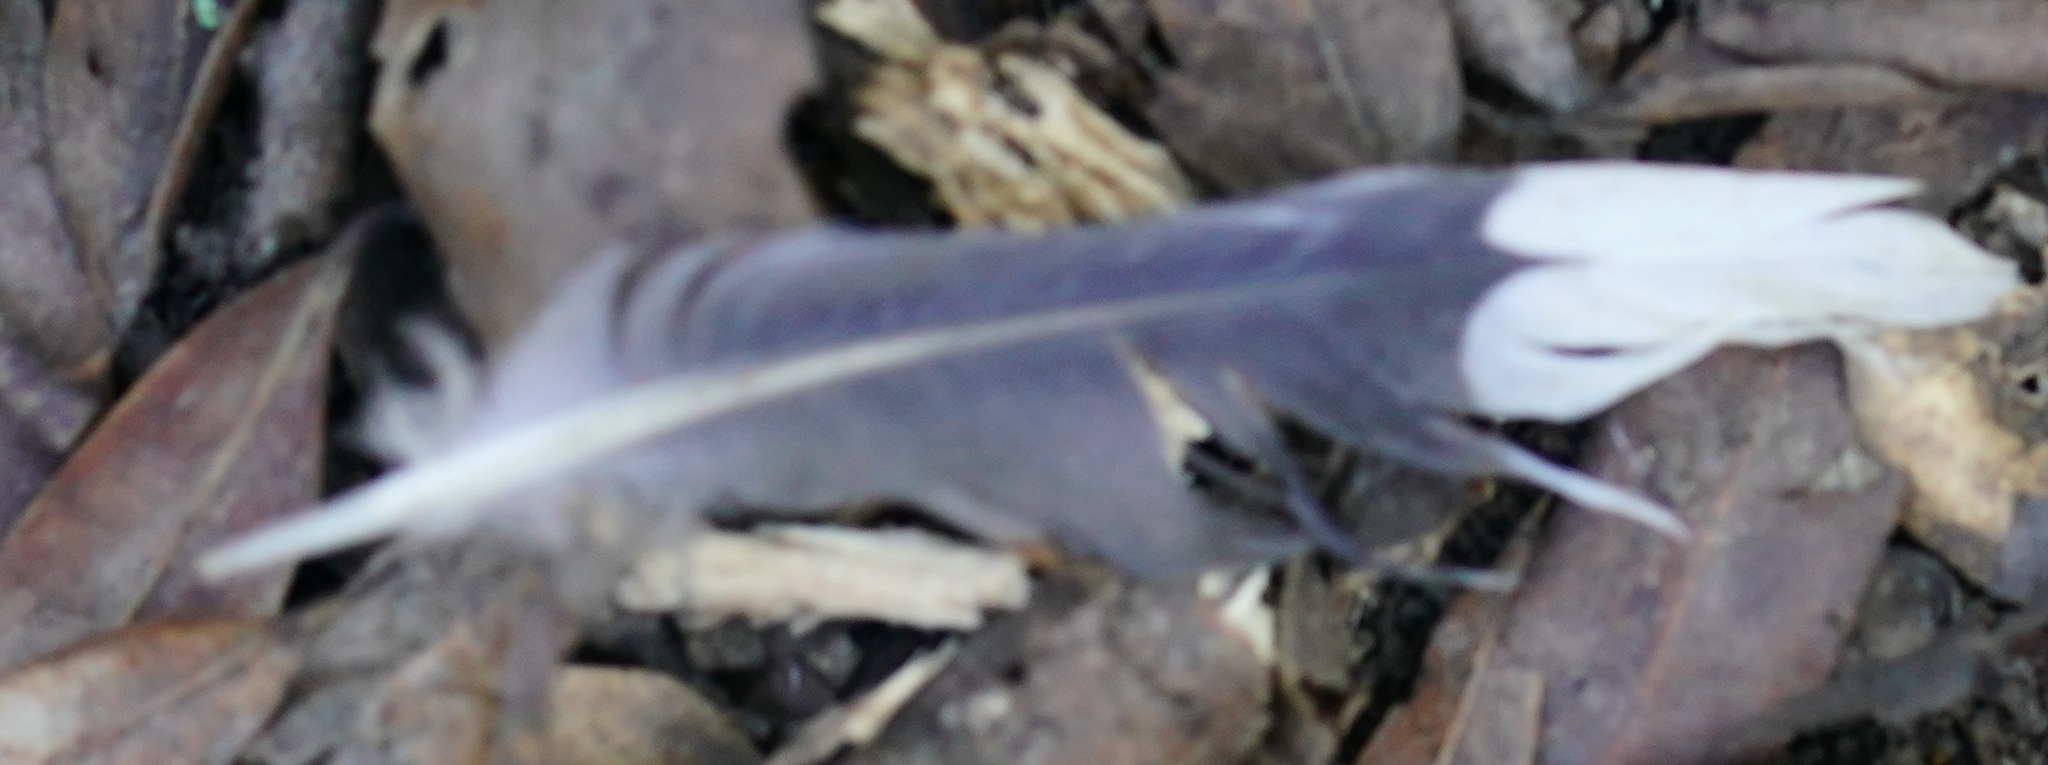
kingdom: Animalia
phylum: Chordata
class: Aves
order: Columbiformes
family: Columbidae
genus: Zenaida
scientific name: Zenaida macroura
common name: Mourning dove
